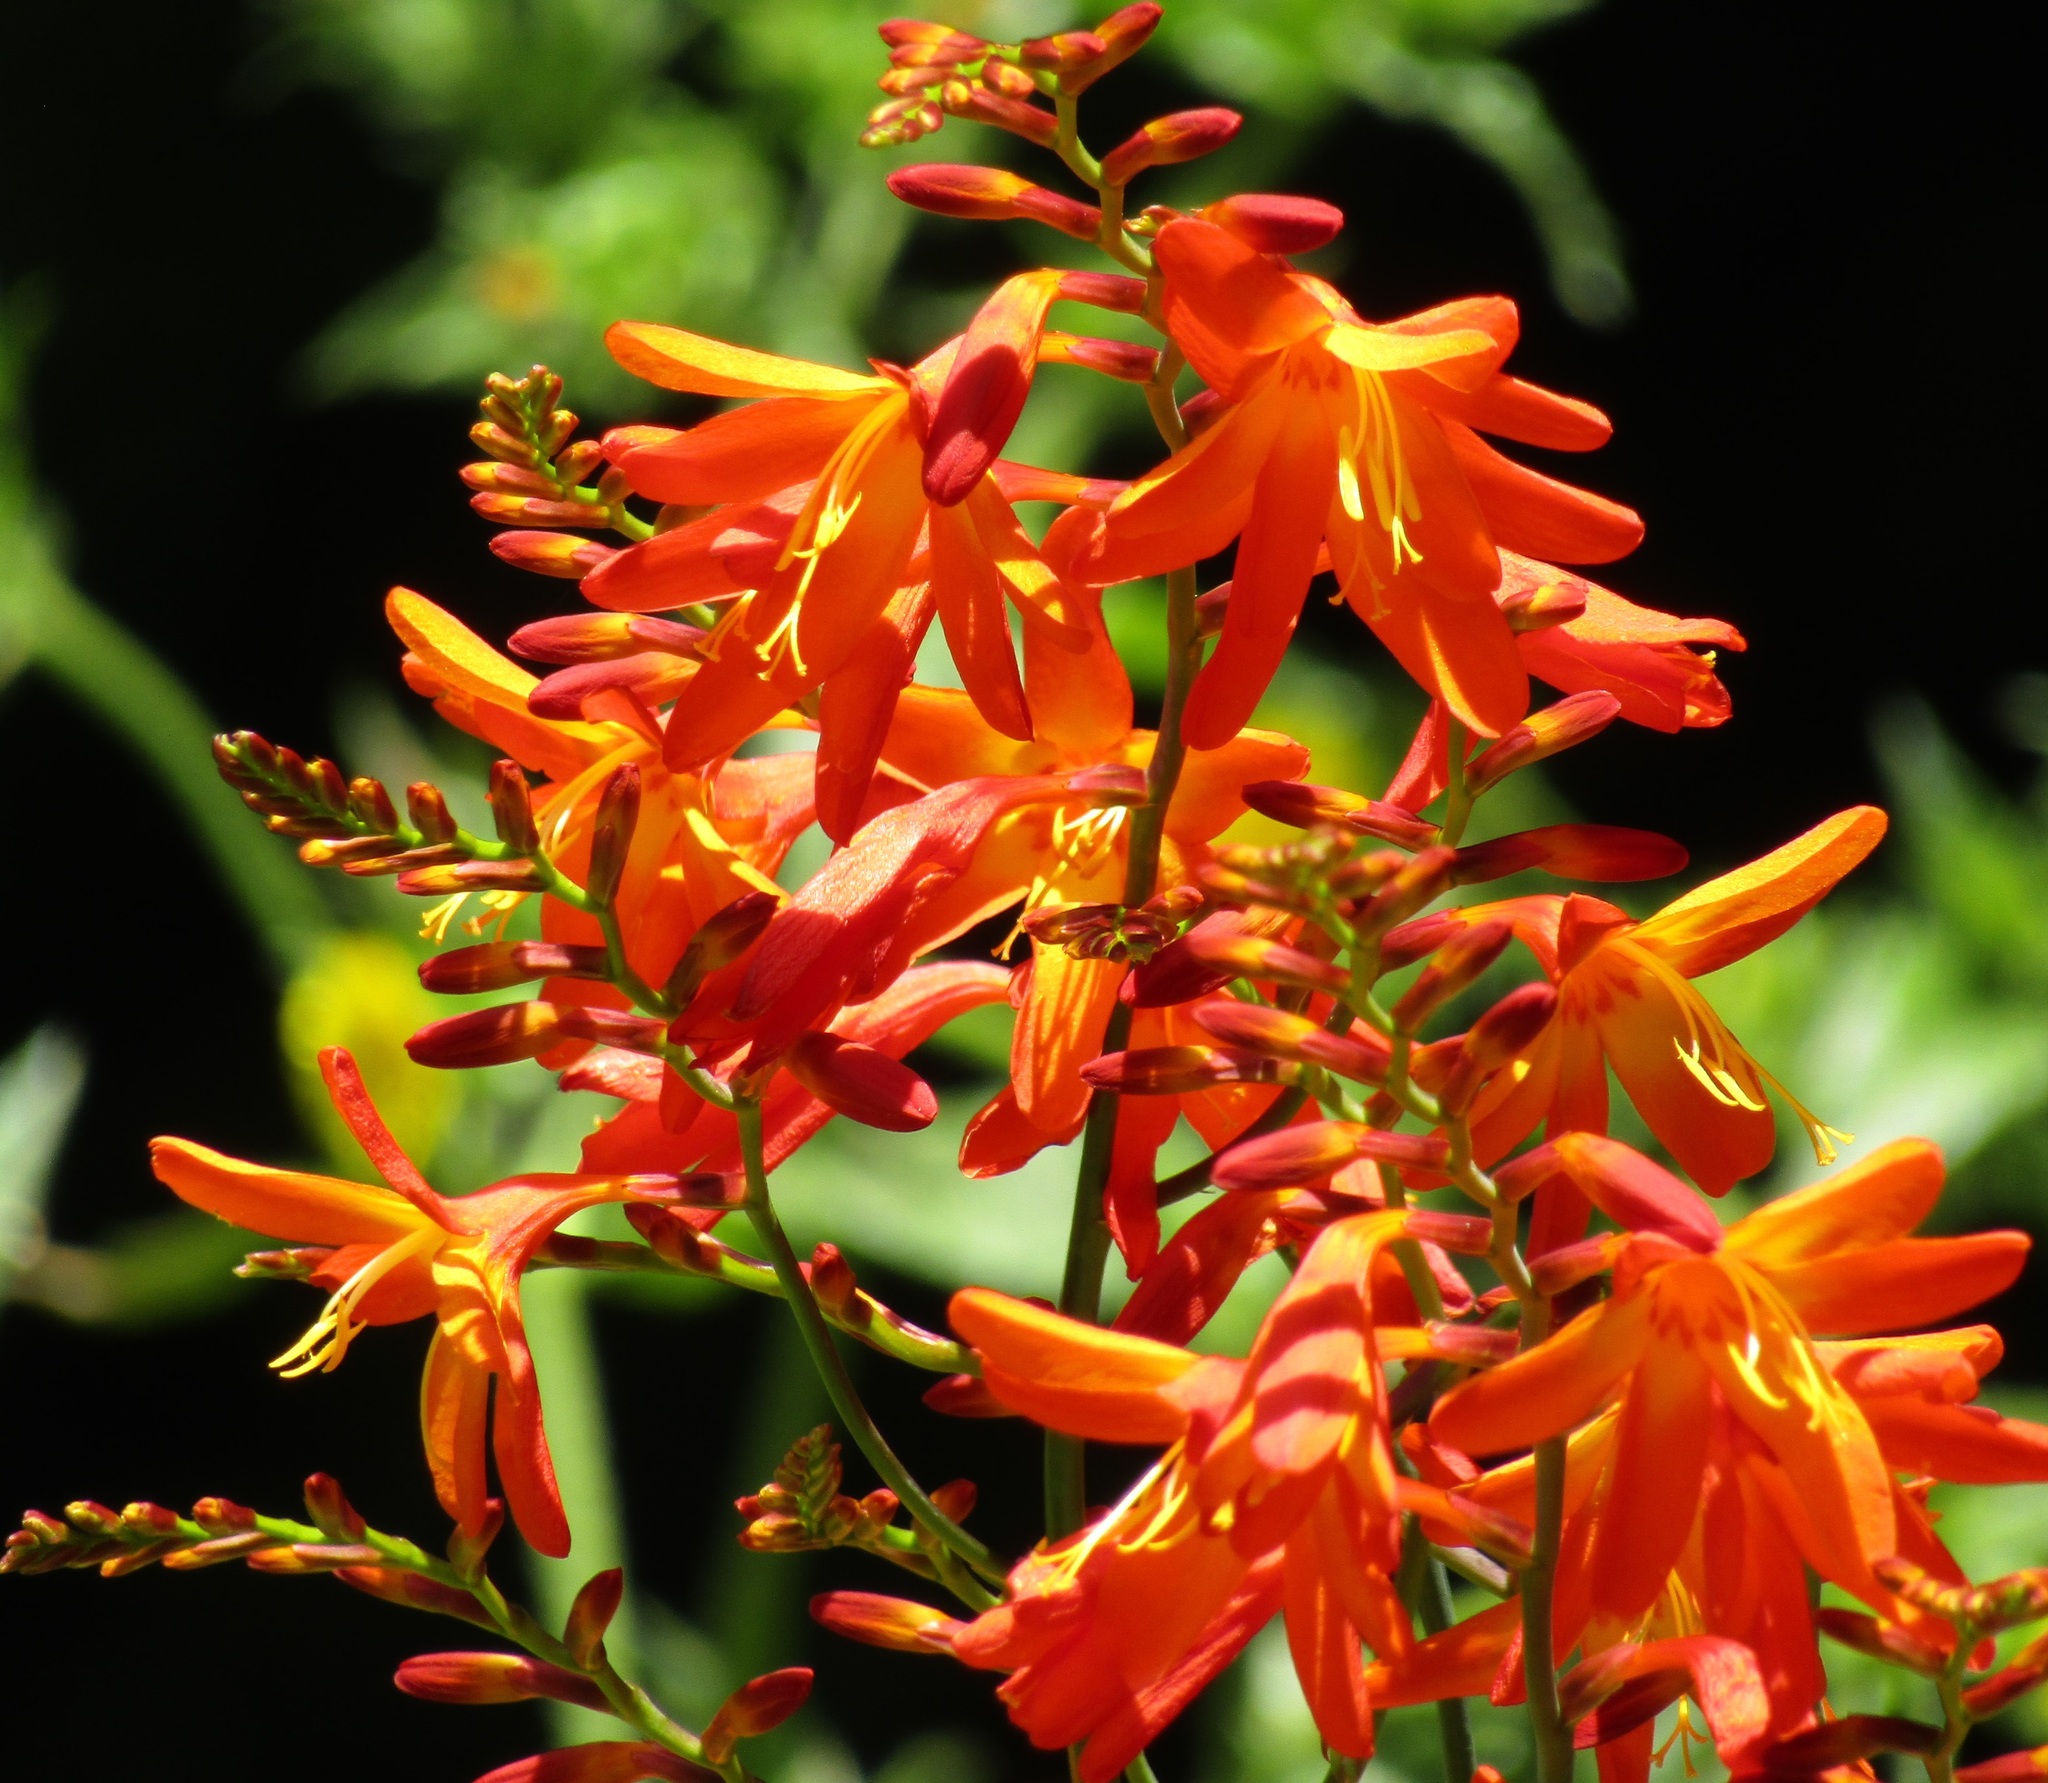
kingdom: Plantae
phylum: Tracheophyta
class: Liliopsida
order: Asparagales
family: Iridaceae
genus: Crocosmia
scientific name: Crocosmia crocosmiiflora
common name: Montbretia
